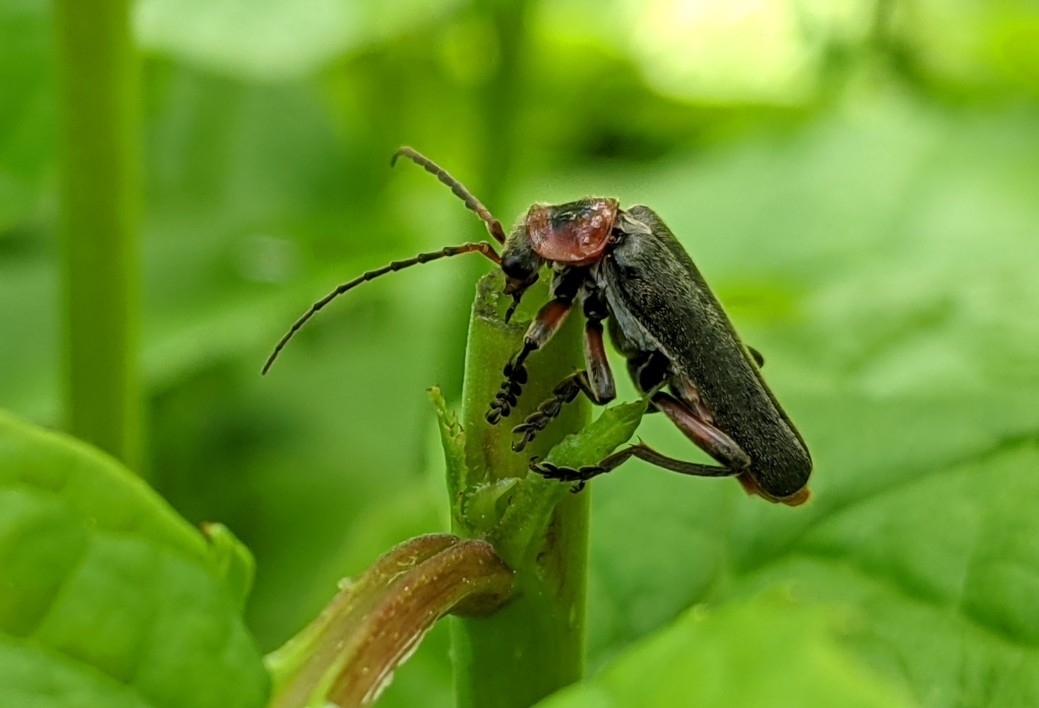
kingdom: Animalia
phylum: Arthropoda
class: Insecta
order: Coleoptera
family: Cantharidae
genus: Cantharis
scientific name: Cantharis rustica
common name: Soldier beetle
